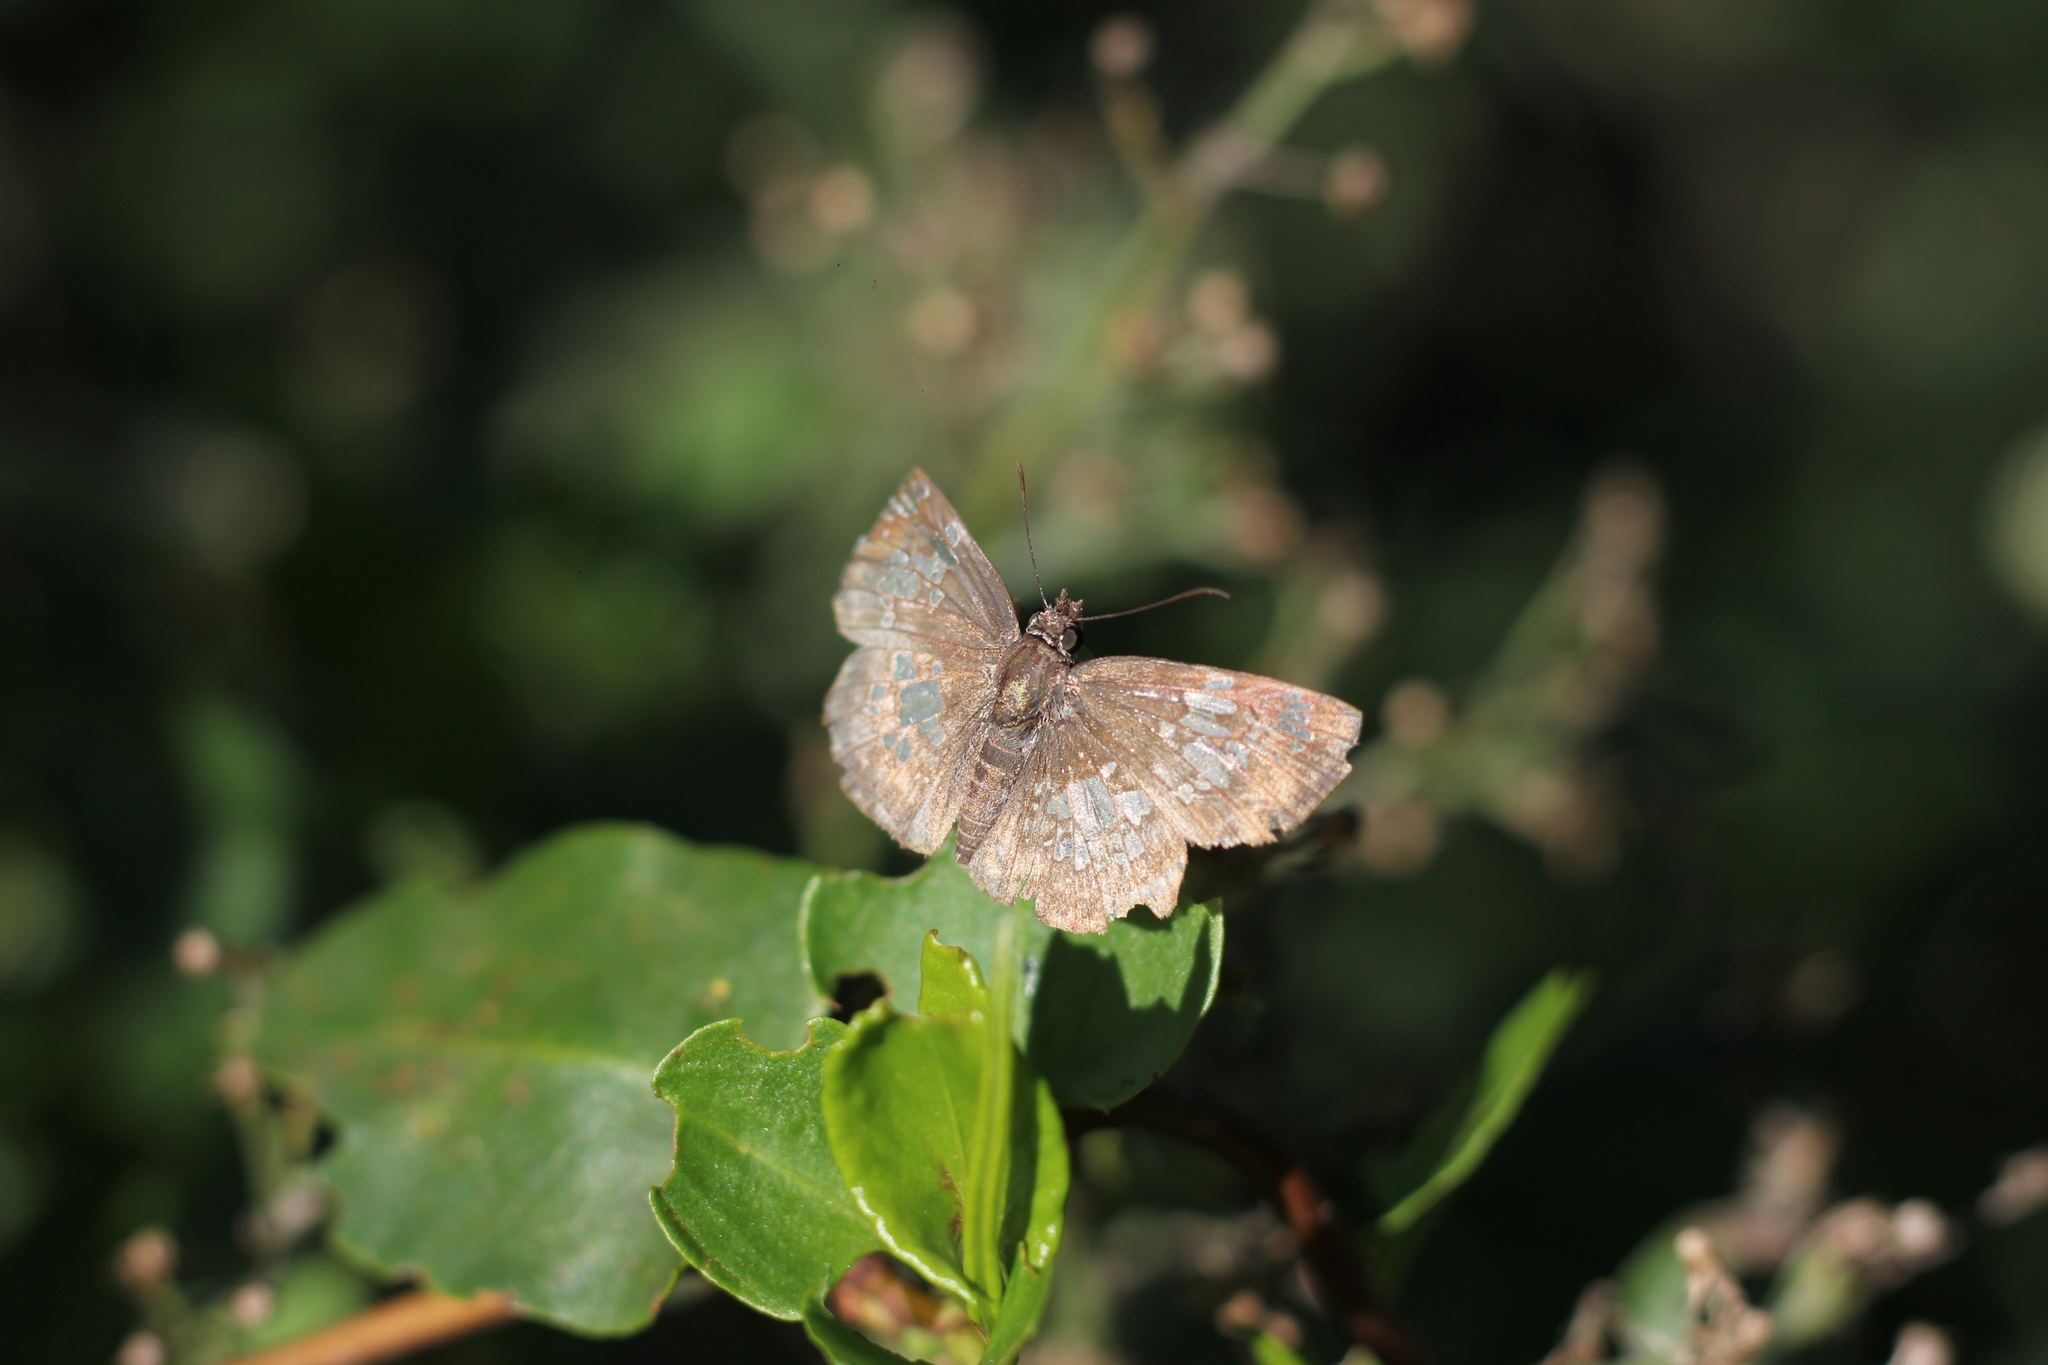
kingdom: Animalia
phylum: Arthropoda
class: Insecta
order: Lepidoptera
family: Hesperiidae
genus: Xenophanes
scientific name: Xenophanes tryxus
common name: Glassy-winged skipper
